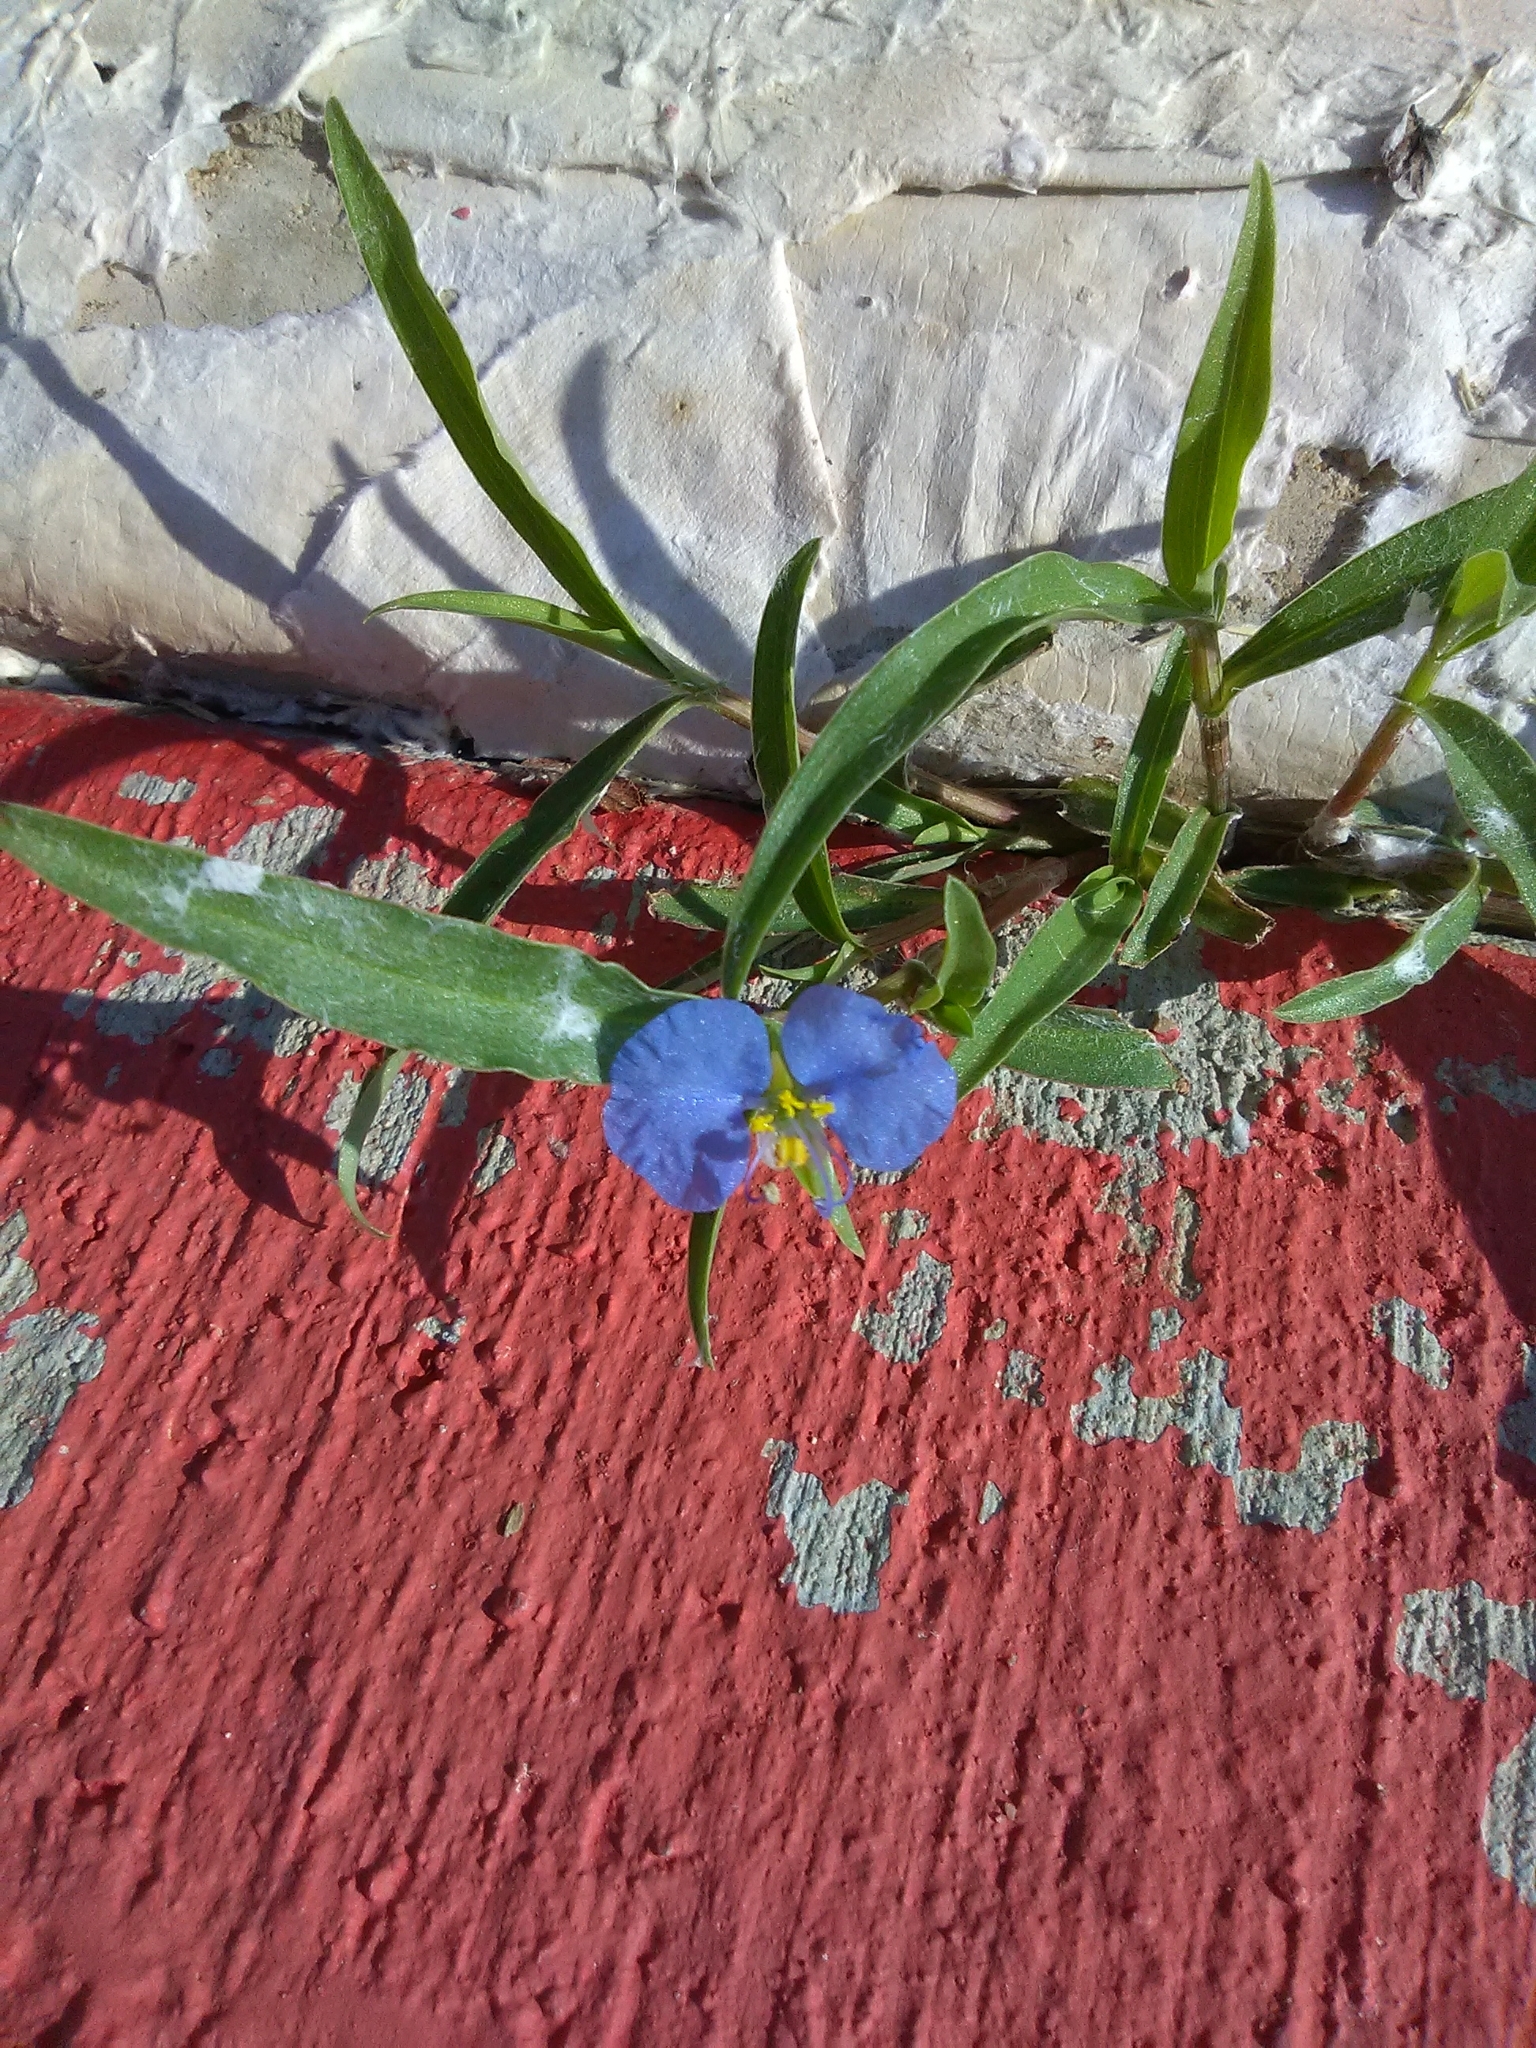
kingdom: Plantae
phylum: Tracheophyta
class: Liliopsida
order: Commelinales
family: Commelinaceae
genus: Commelina
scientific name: Commelina erecta
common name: Blousel blommetjie
